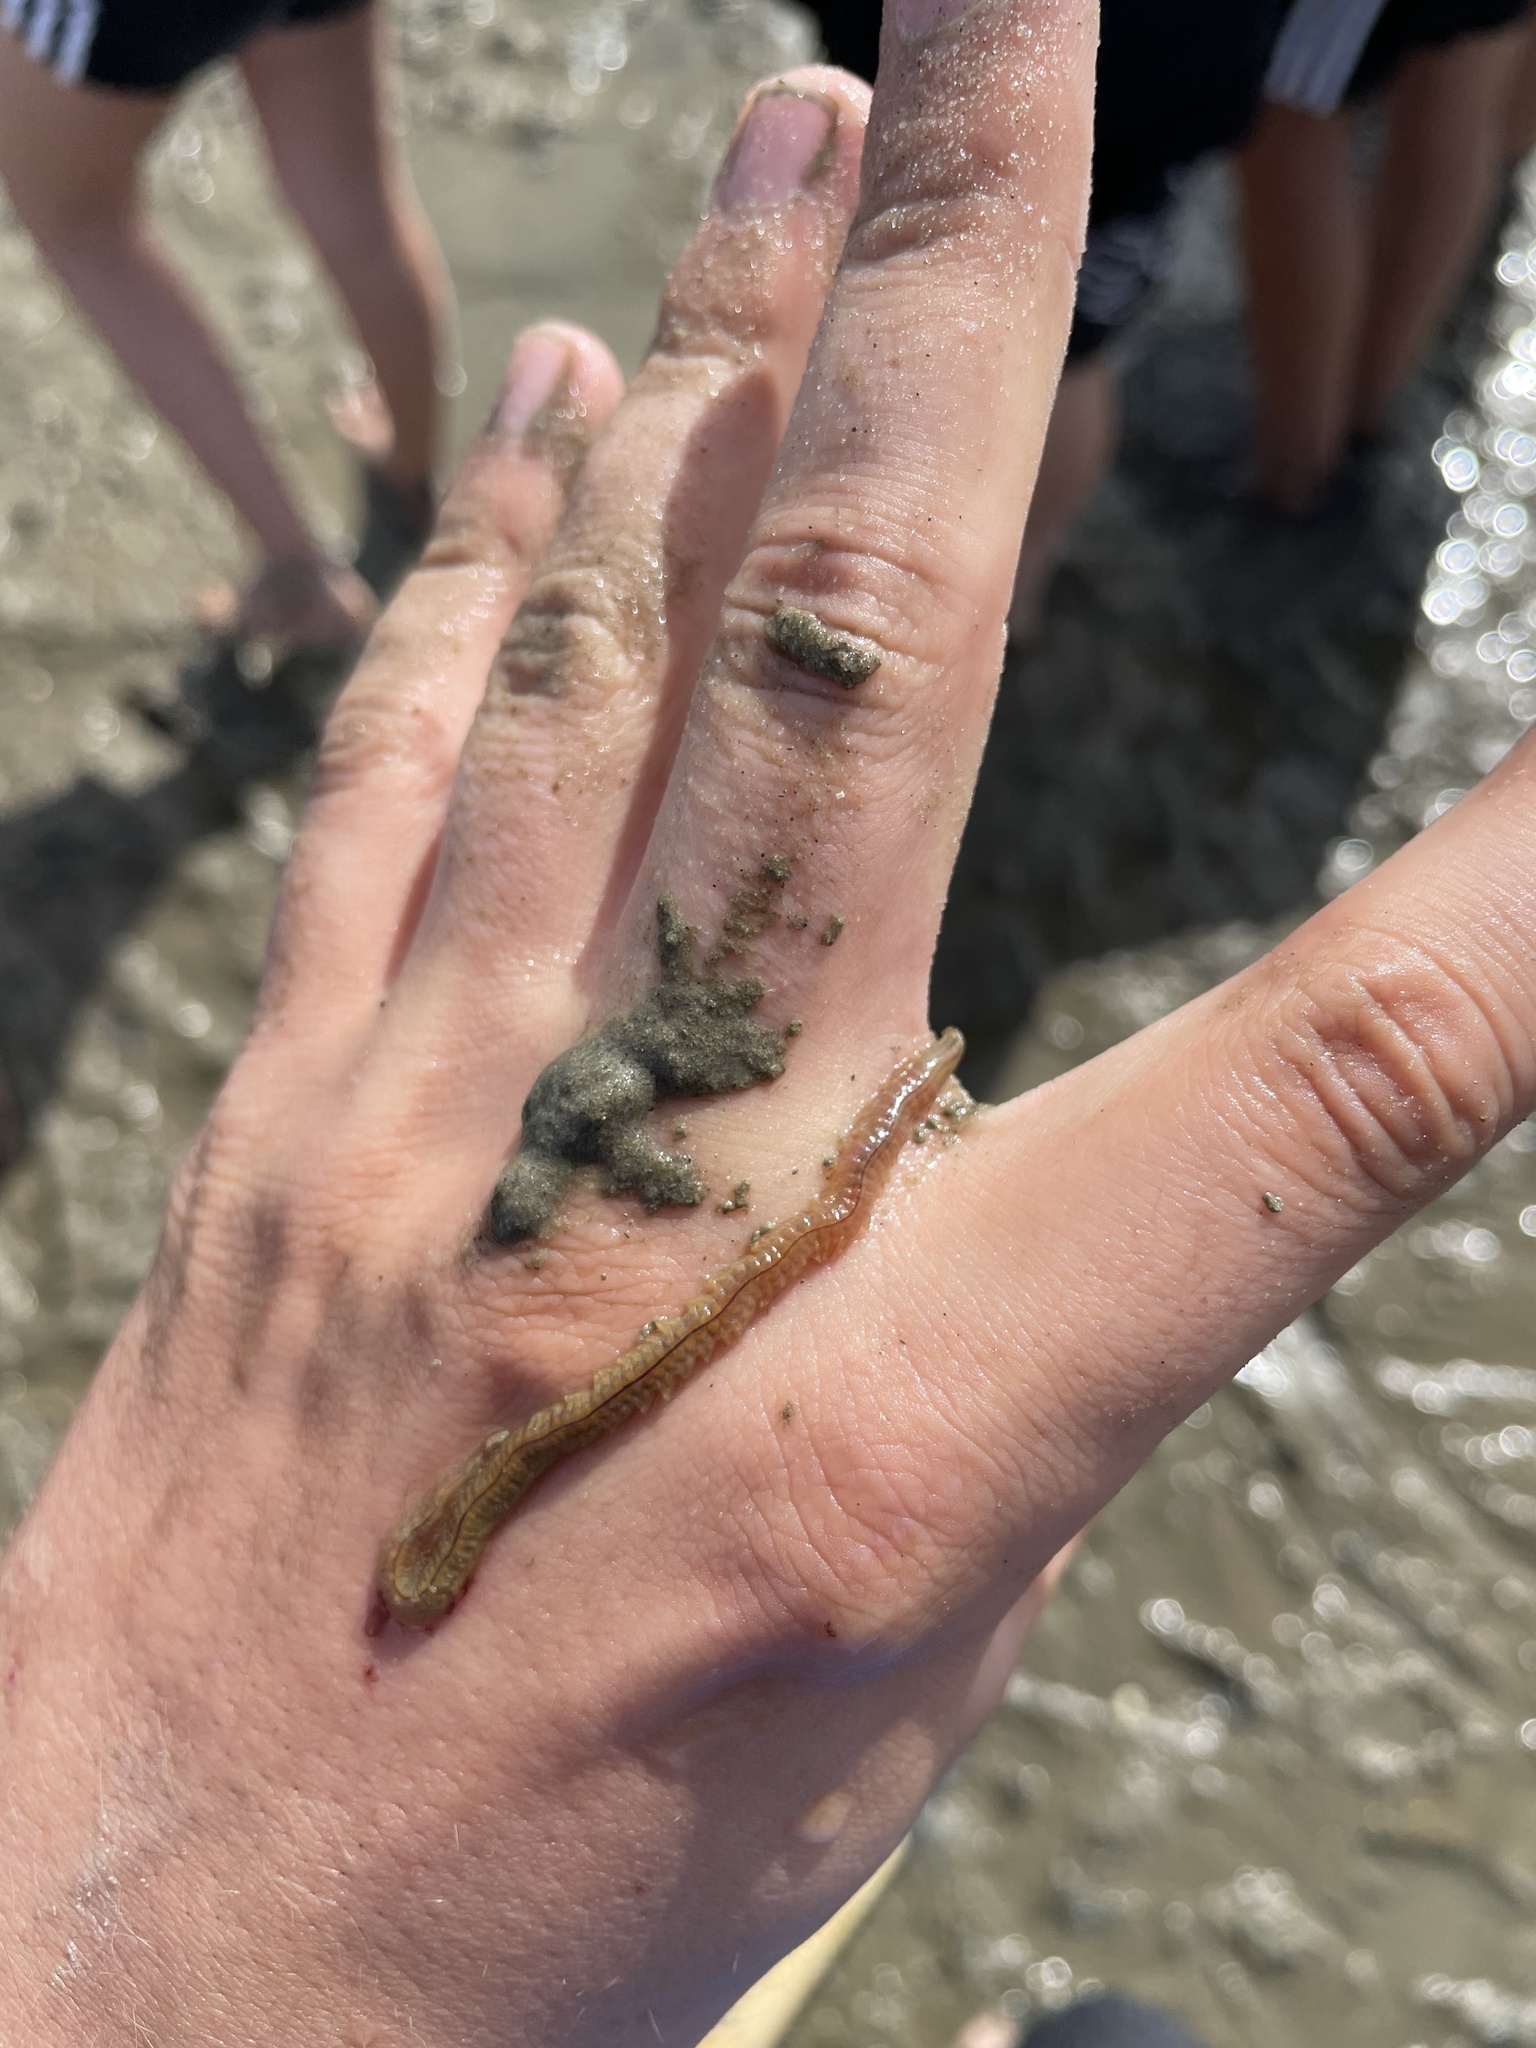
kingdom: Animalia
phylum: Annelida
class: Polychaeta
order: Phyllodocida
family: Nereididae
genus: Hediste
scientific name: Hediste diversicolor
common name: Estuary ragworm
